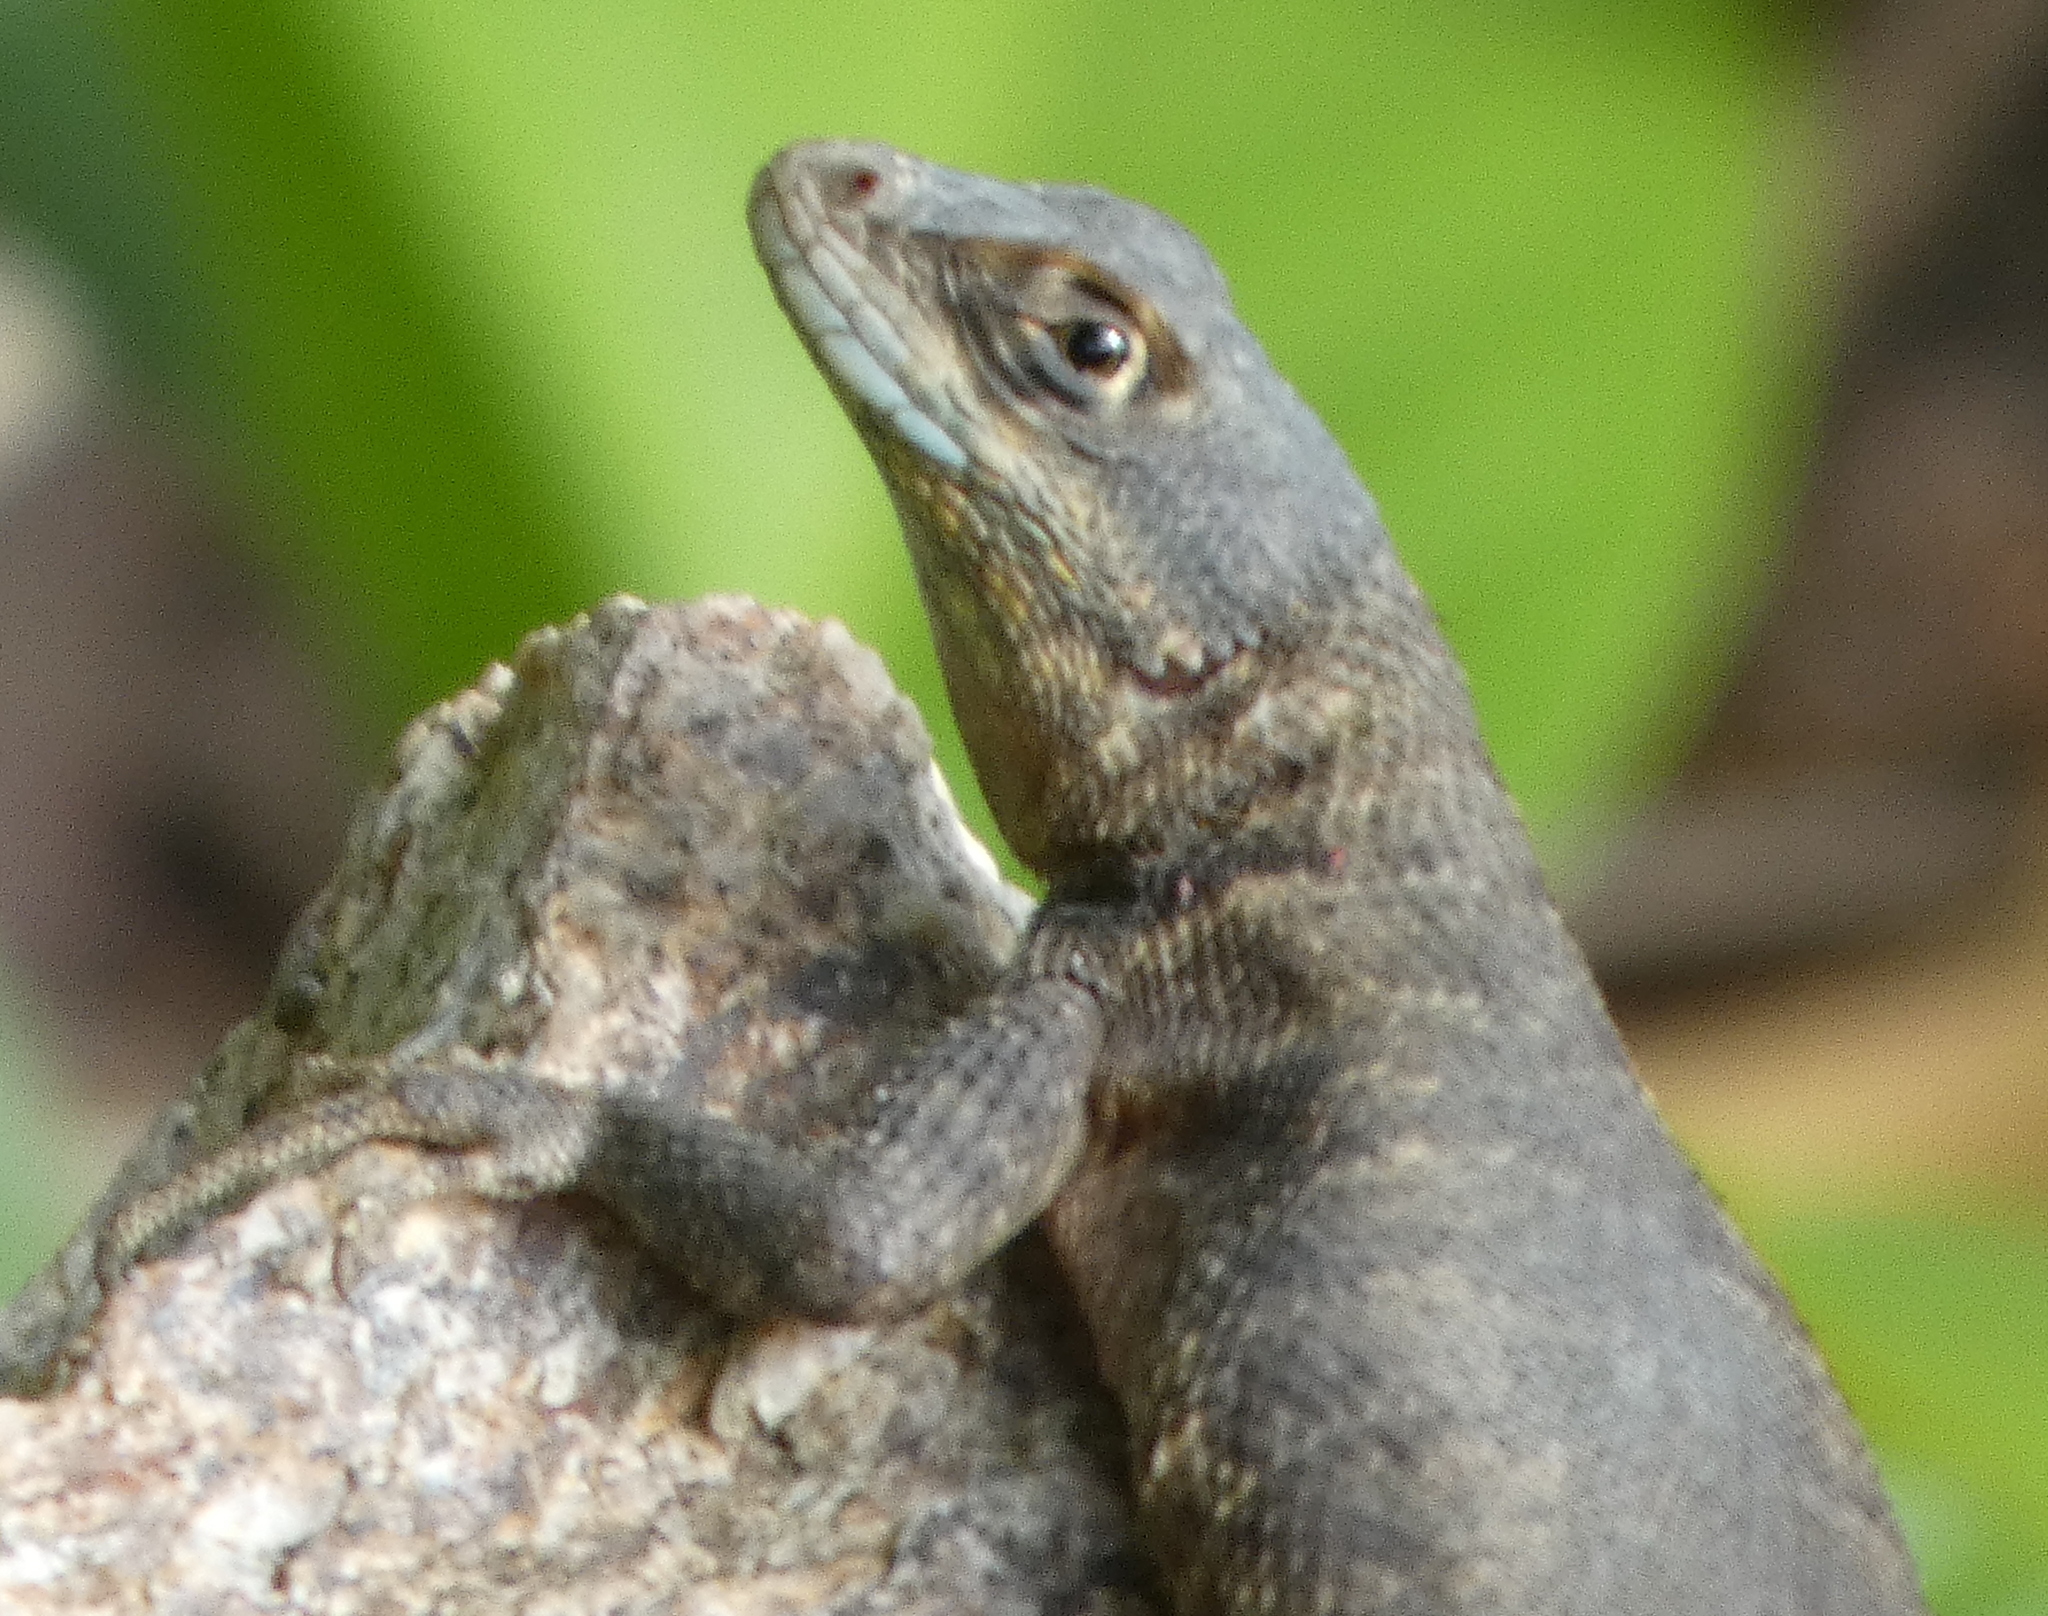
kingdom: Animalia
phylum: Chordata
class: Squamata
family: Tropiduridae
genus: Tropidurus
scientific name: Tropidurus hispidus
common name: Peters' lava lizard
